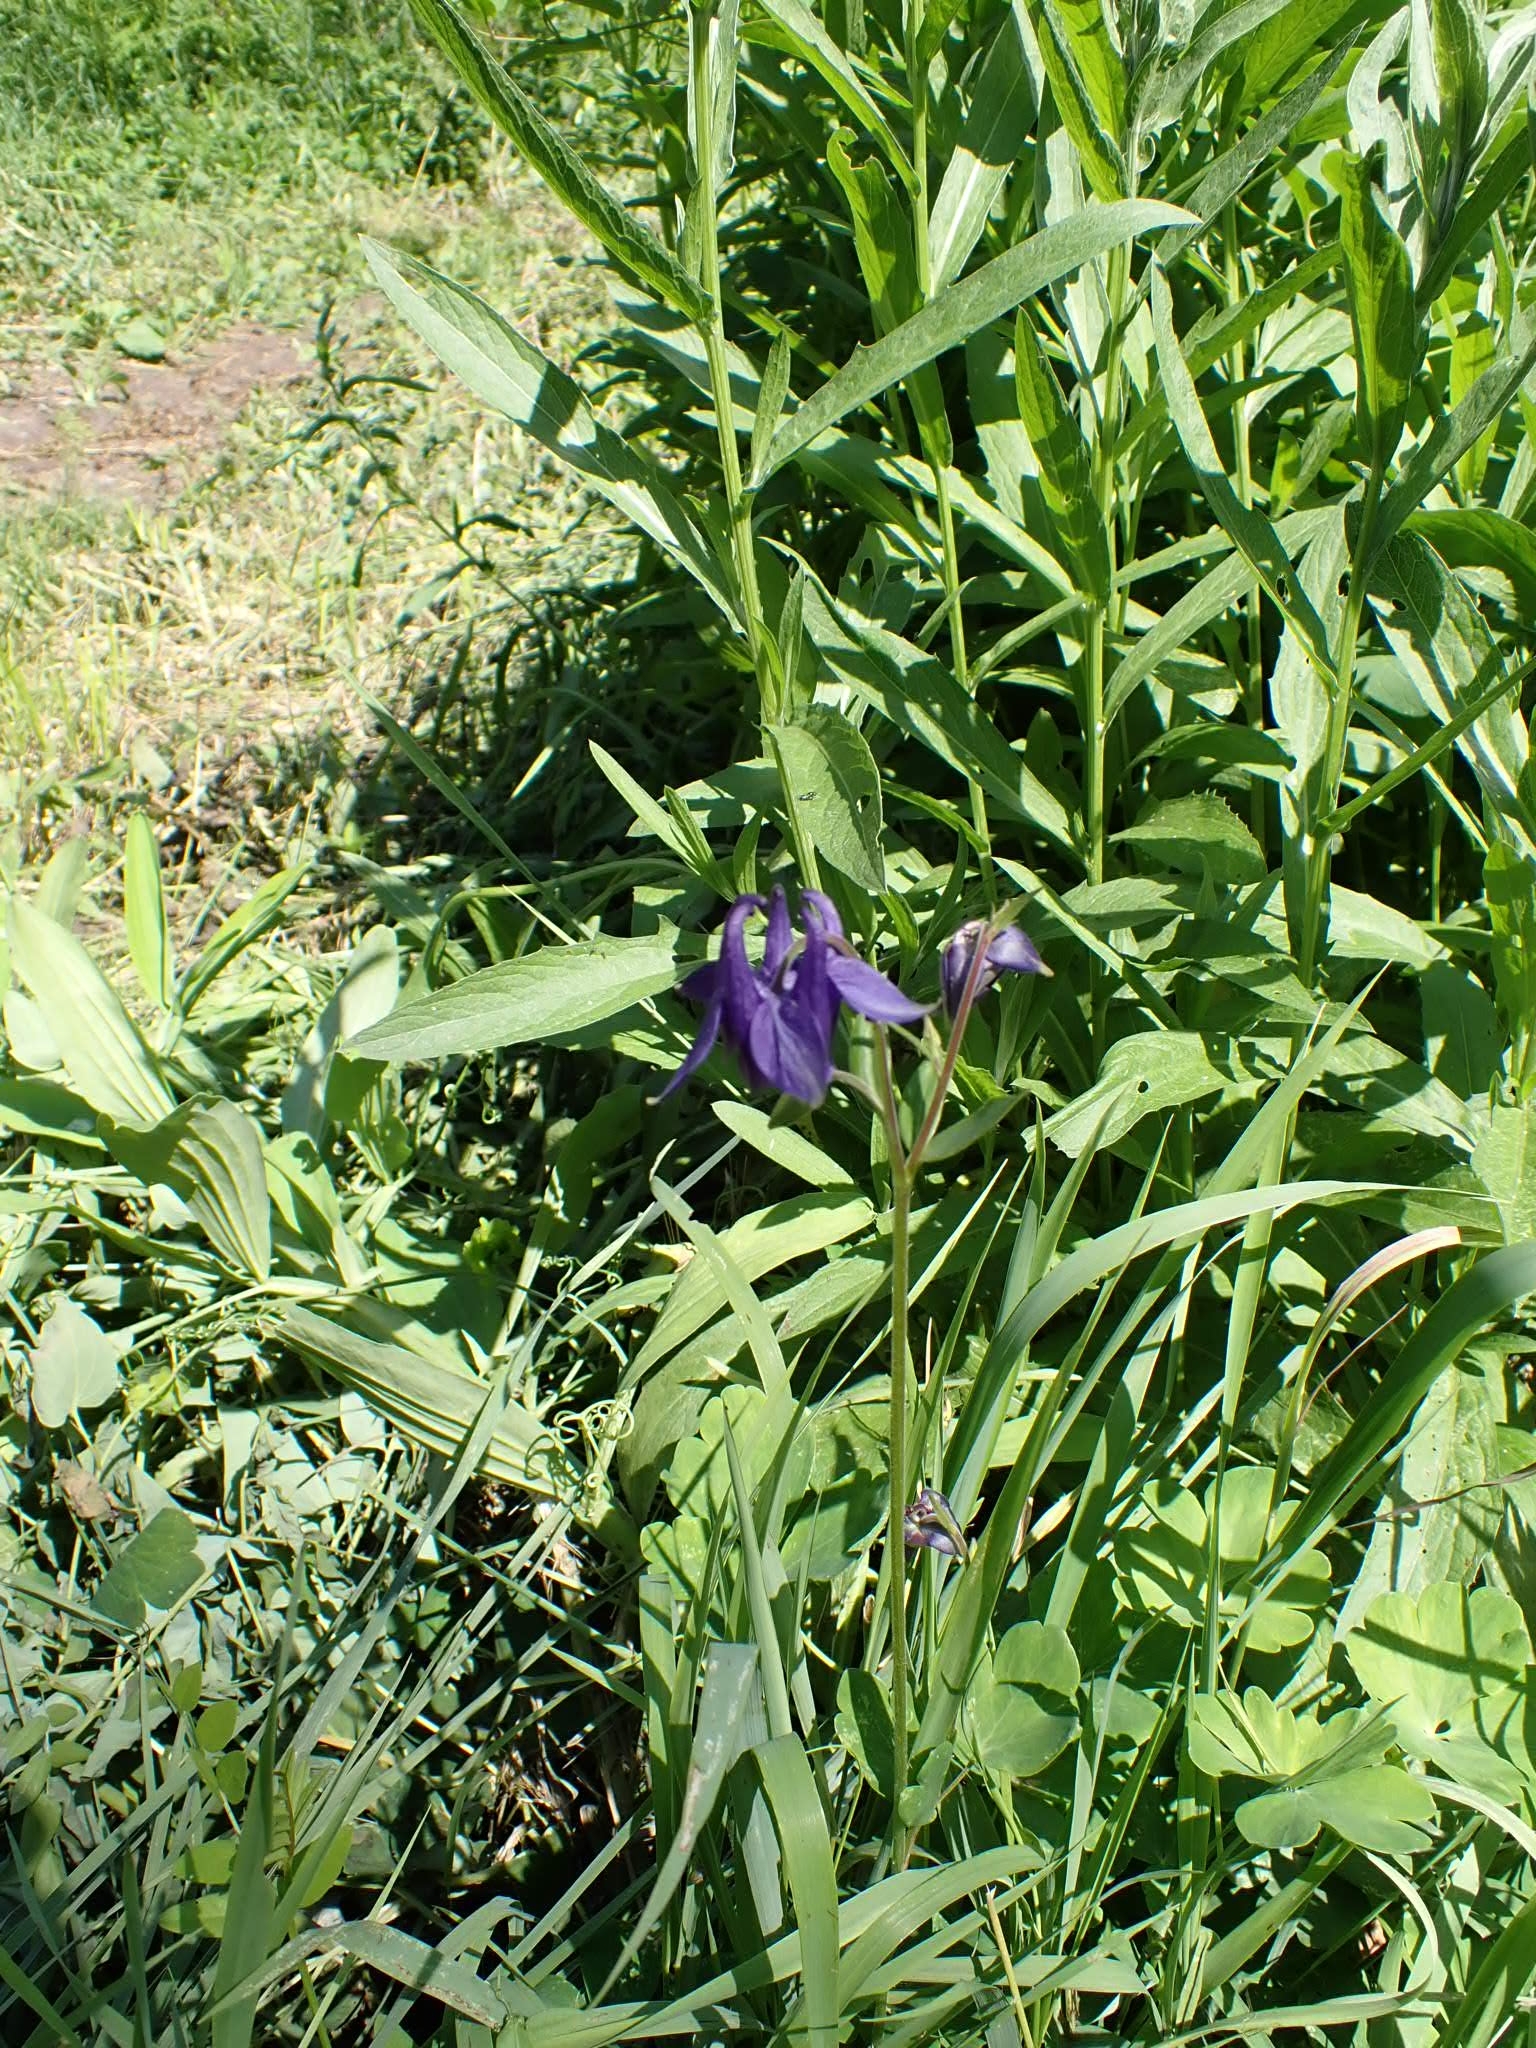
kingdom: Plantae
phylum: Tracheophyta
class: Magnoliopsida
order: Ranunculales
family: Ranunculaceae
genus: Aquilegia
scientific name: Aquilegia vulgaris
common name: Columbine
